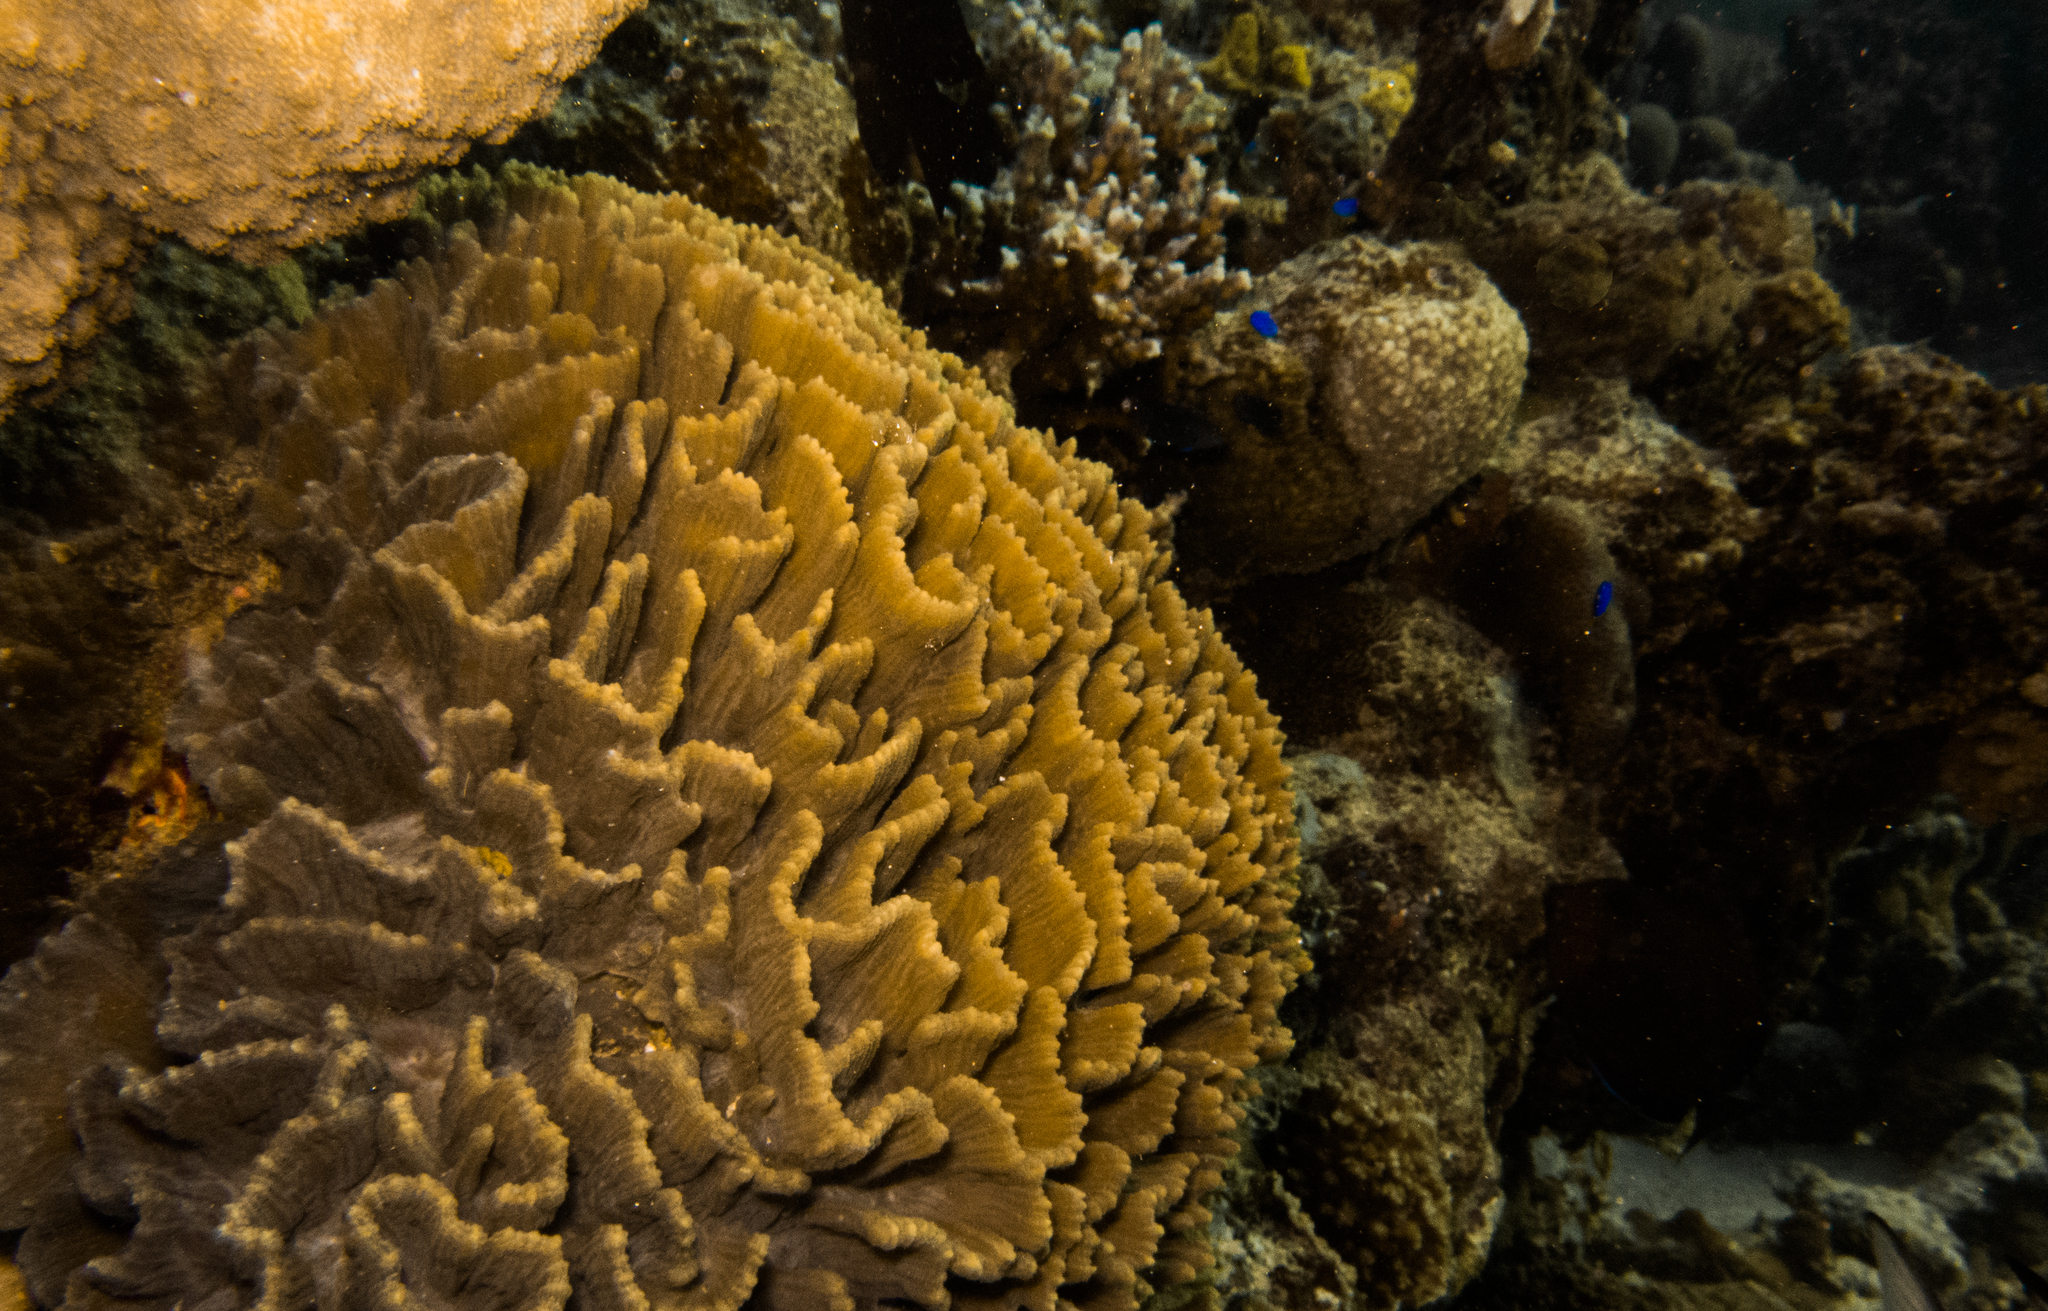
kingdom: Animalia
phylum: Cnidaria
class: Anthozoa
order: Scleractinia
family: Merulinidae
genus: Pectinia
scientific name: Pectinia lactuca
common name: Common lettuce coral
